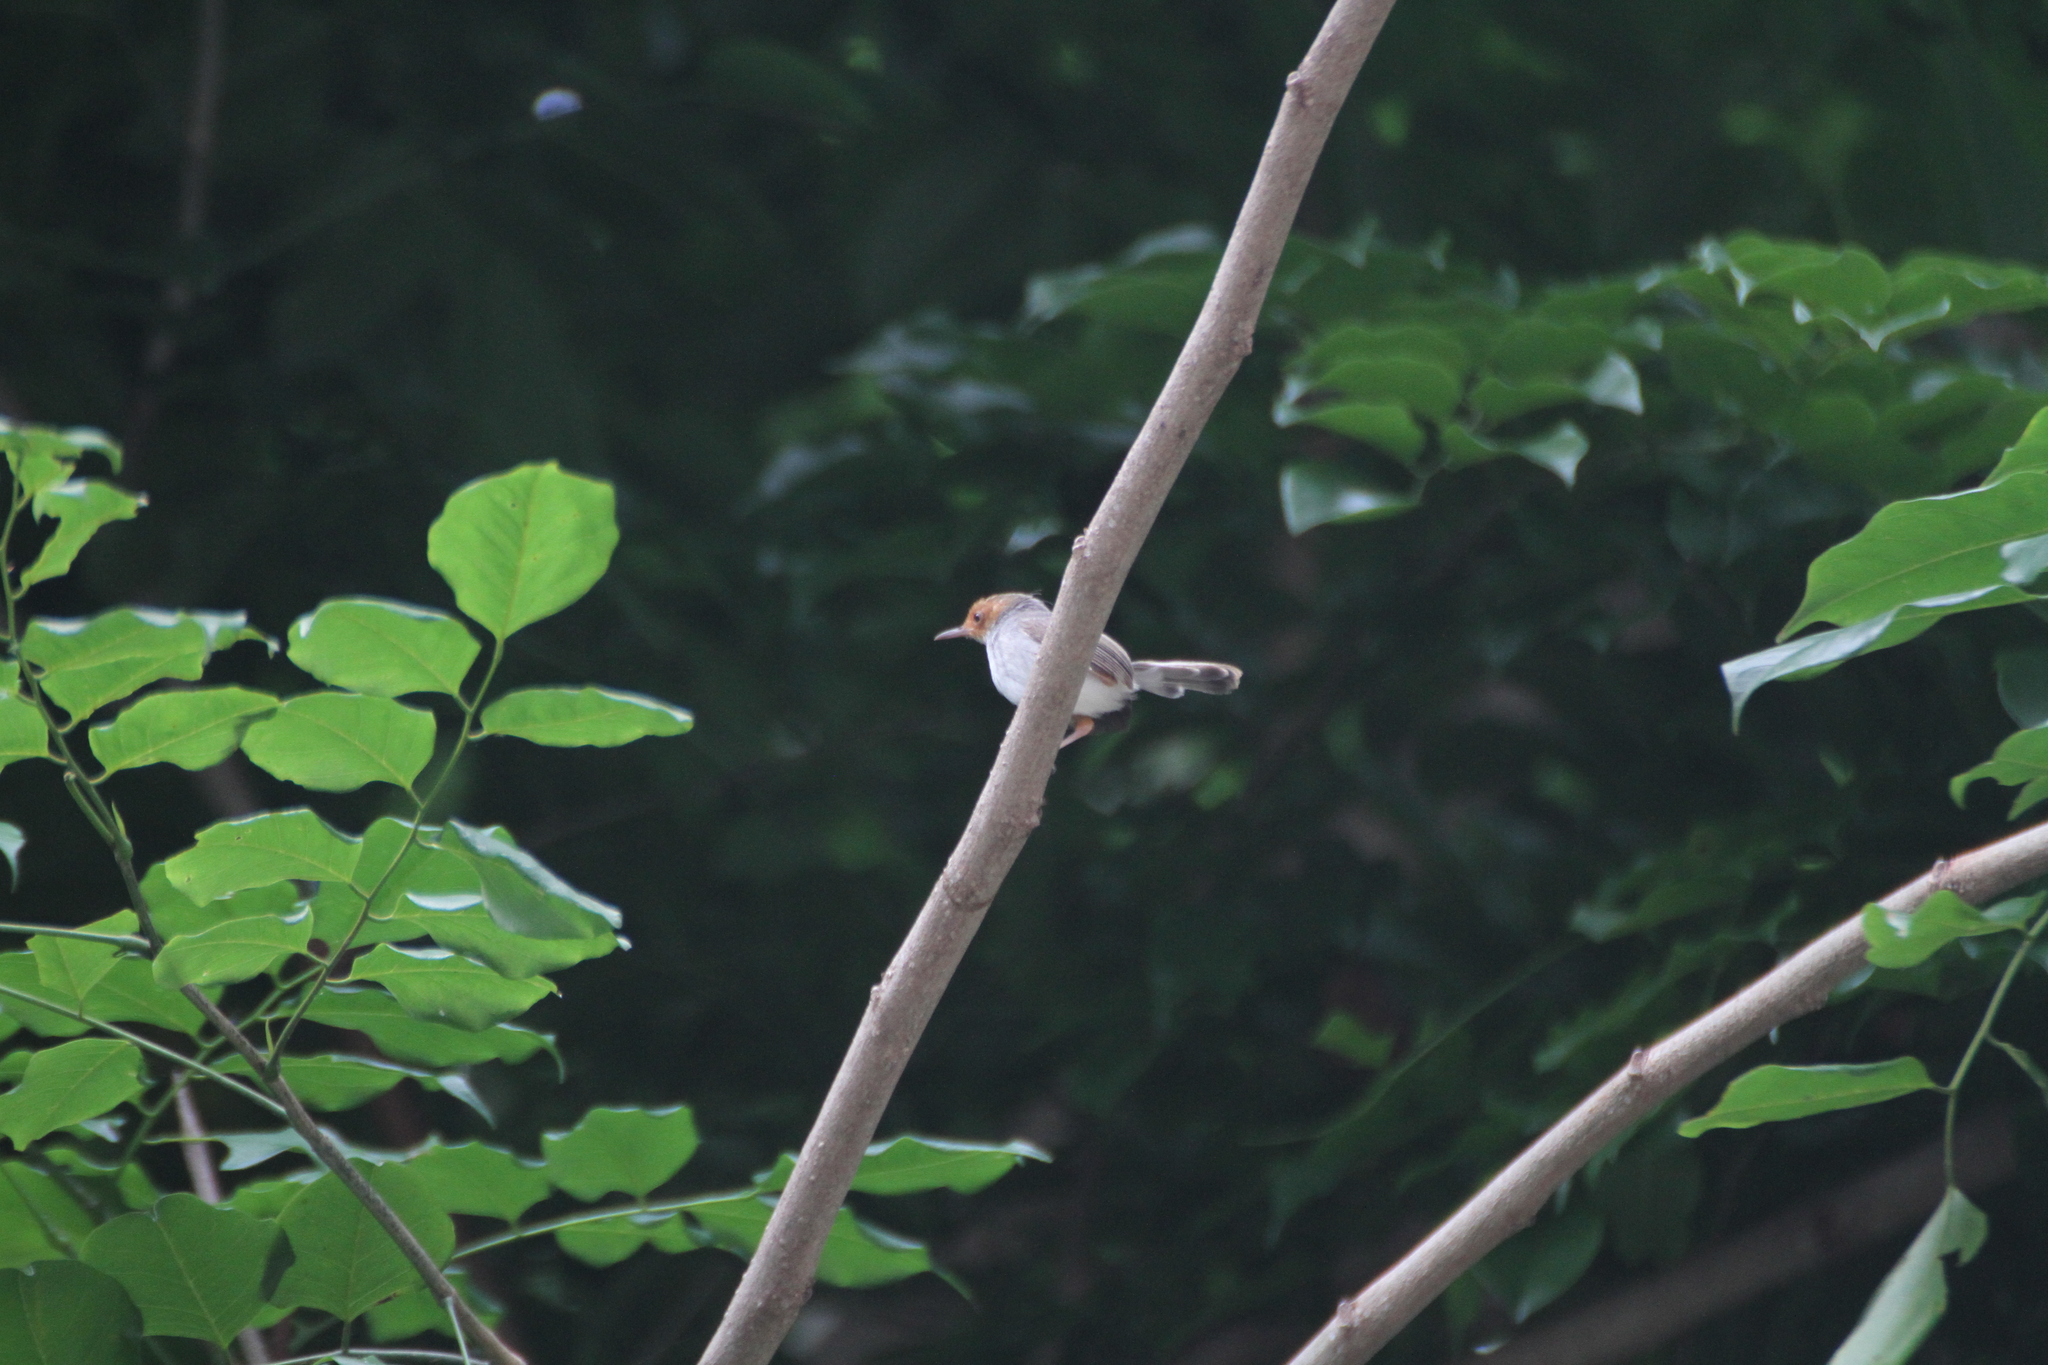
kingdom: Animalia
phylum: Chordata
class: Aves
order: Passeriformes
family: Cisticolidae
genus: Orthotomus
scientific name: Orthotomus ruficeps
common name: Ashy tailorbird
